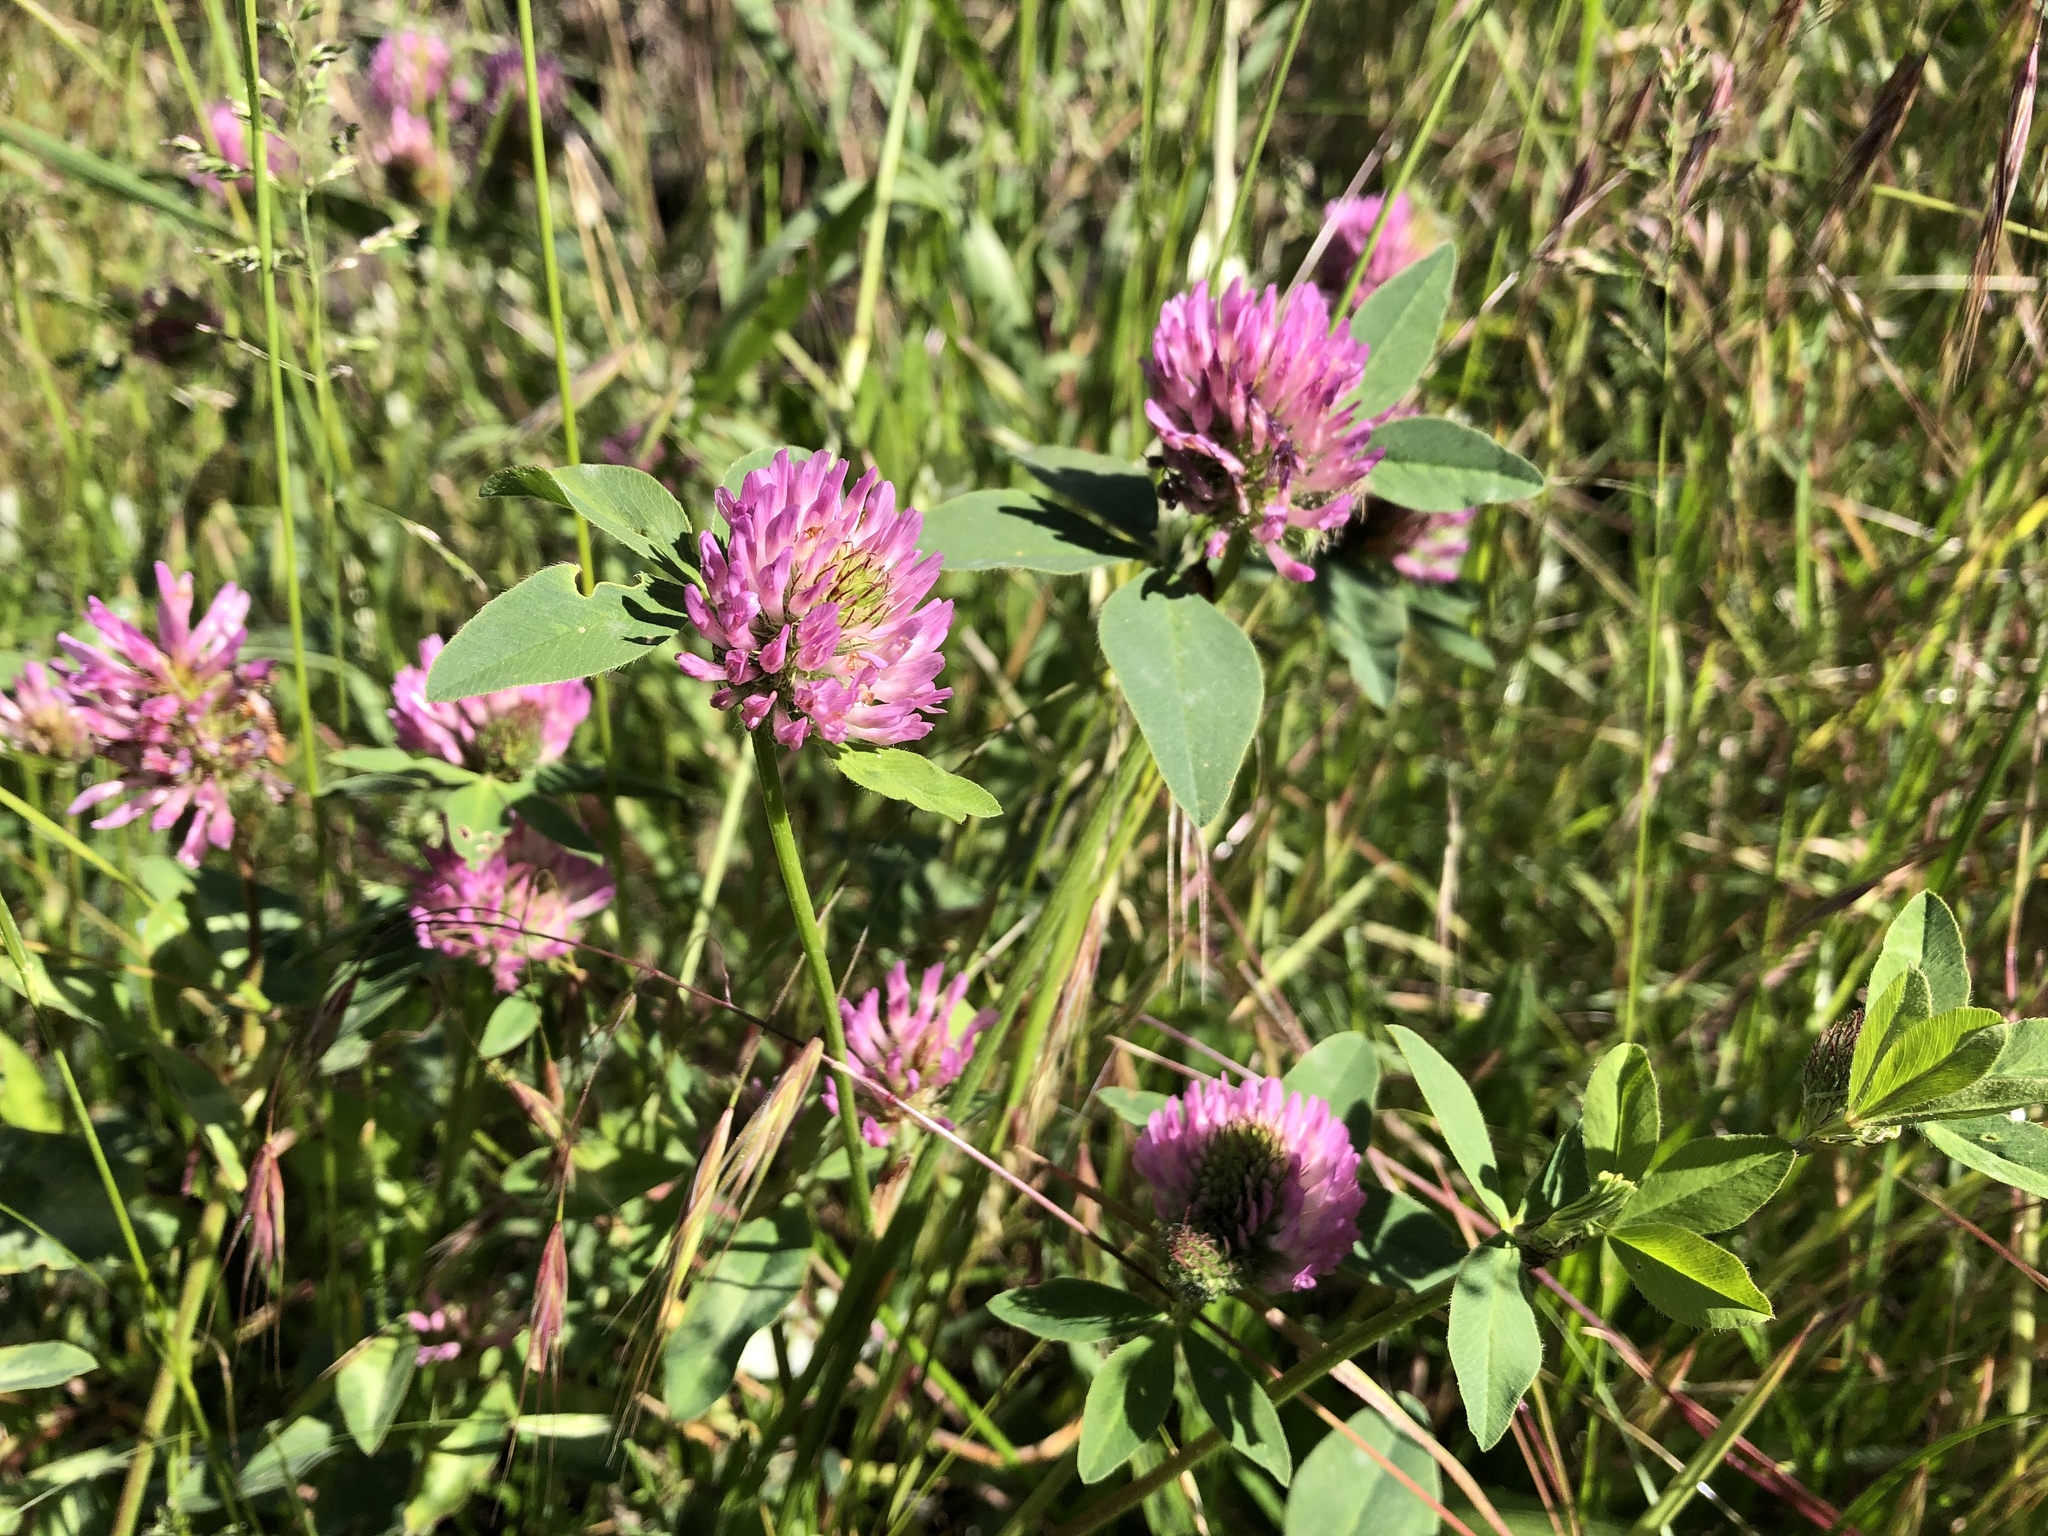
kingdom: Plantae
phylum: Tracheophyta
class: Magnoliopsida
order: Fabales
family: Fabaceae
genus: Trifolium
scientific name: Trifolium pratense
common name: Red clover
